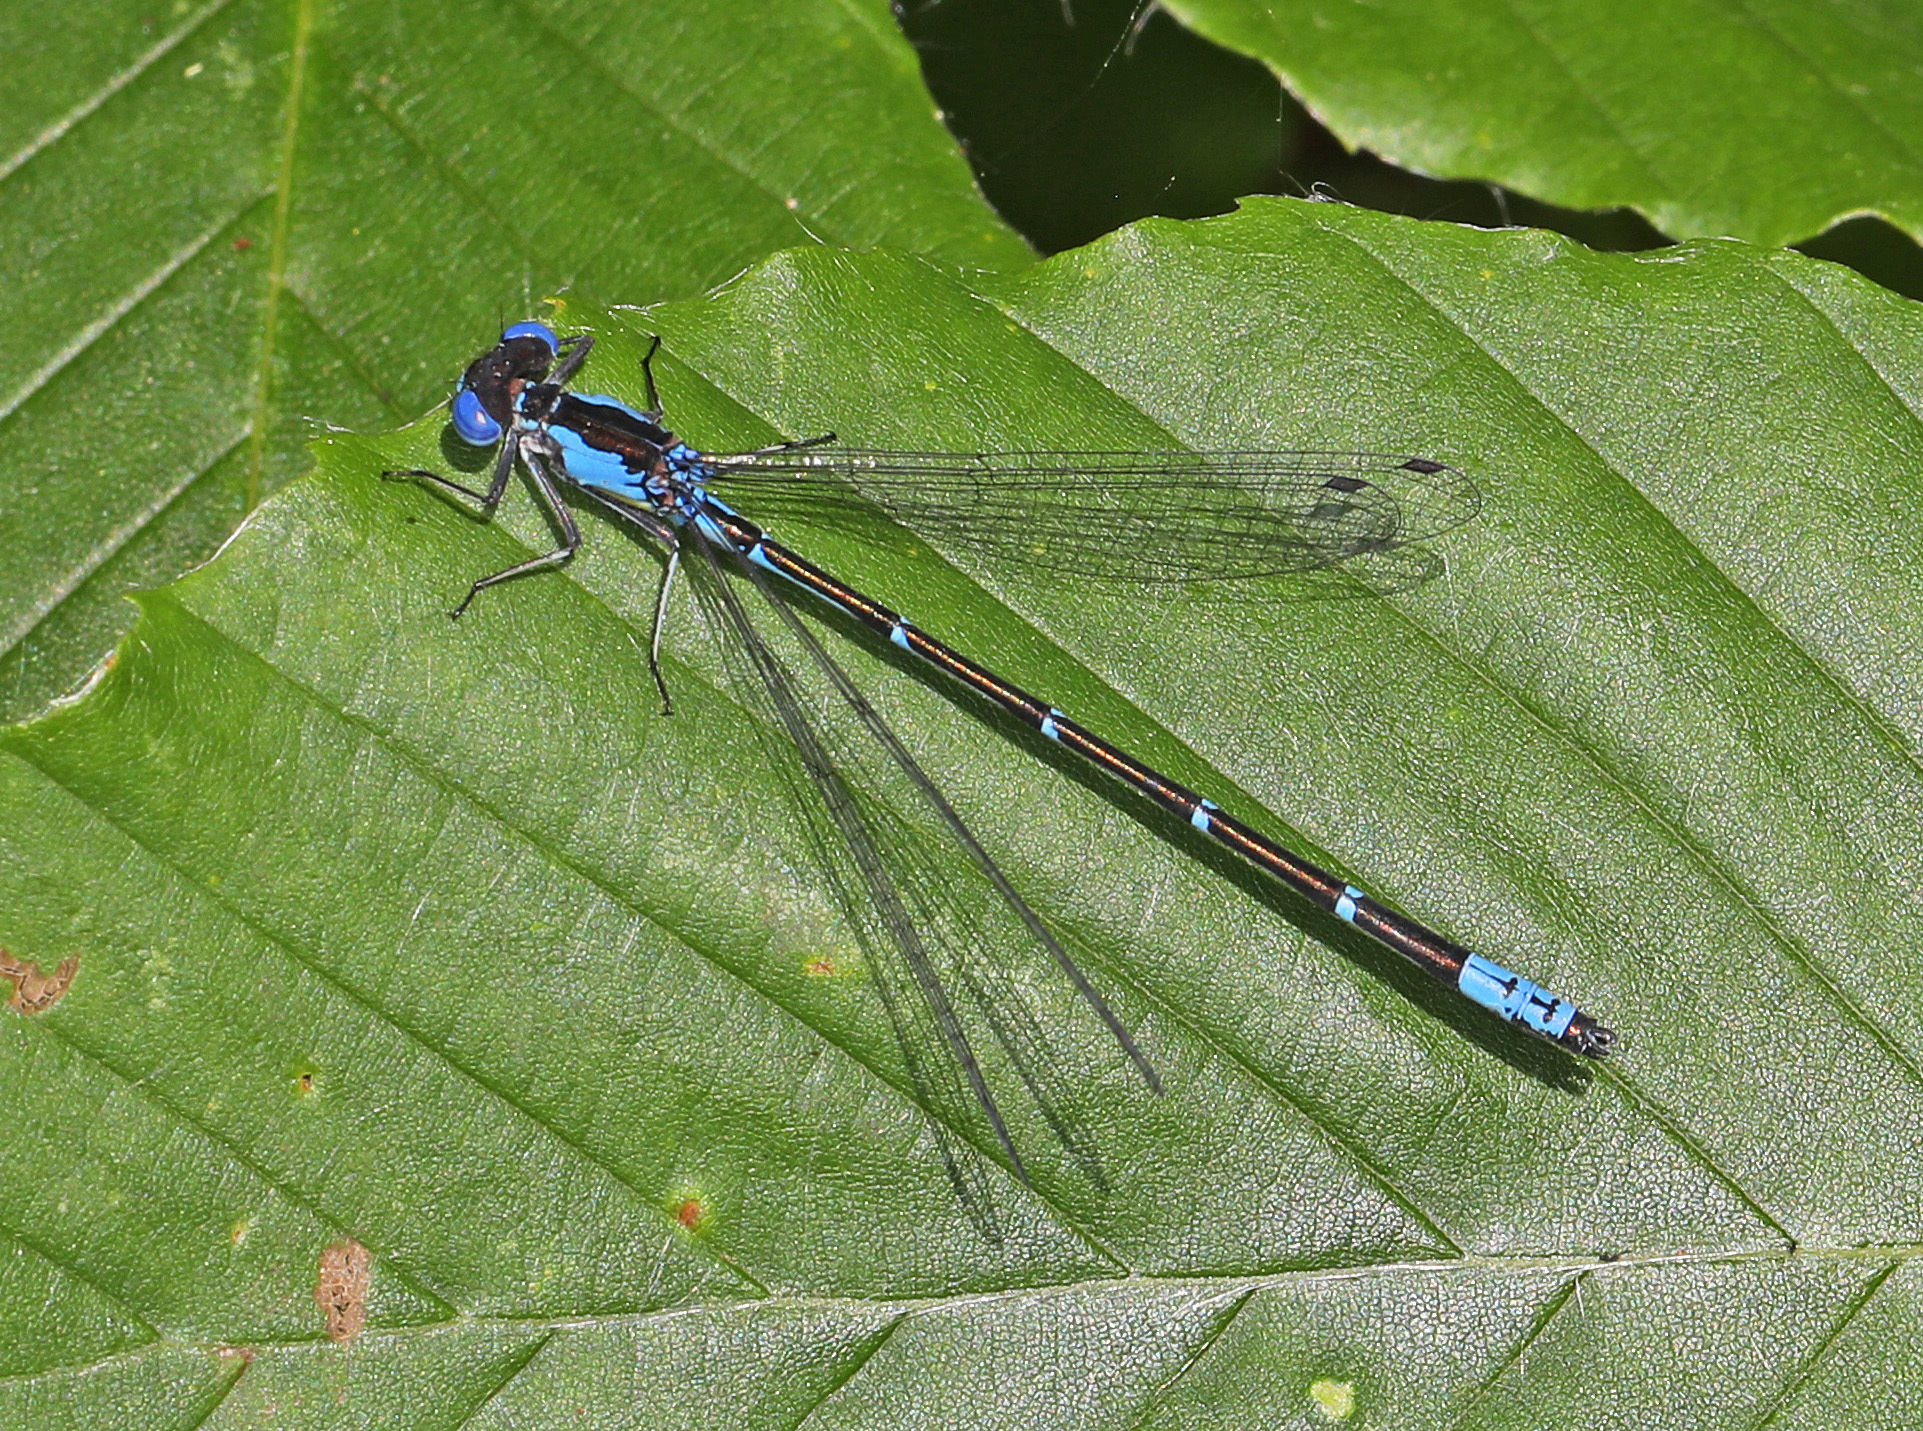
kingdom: Animalia
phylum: Arthropoda
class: Insecta
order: Odonata
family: Coenagrionidae
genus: Chromagrion
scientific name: Chromagrion conditum
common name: Aurora damsel
